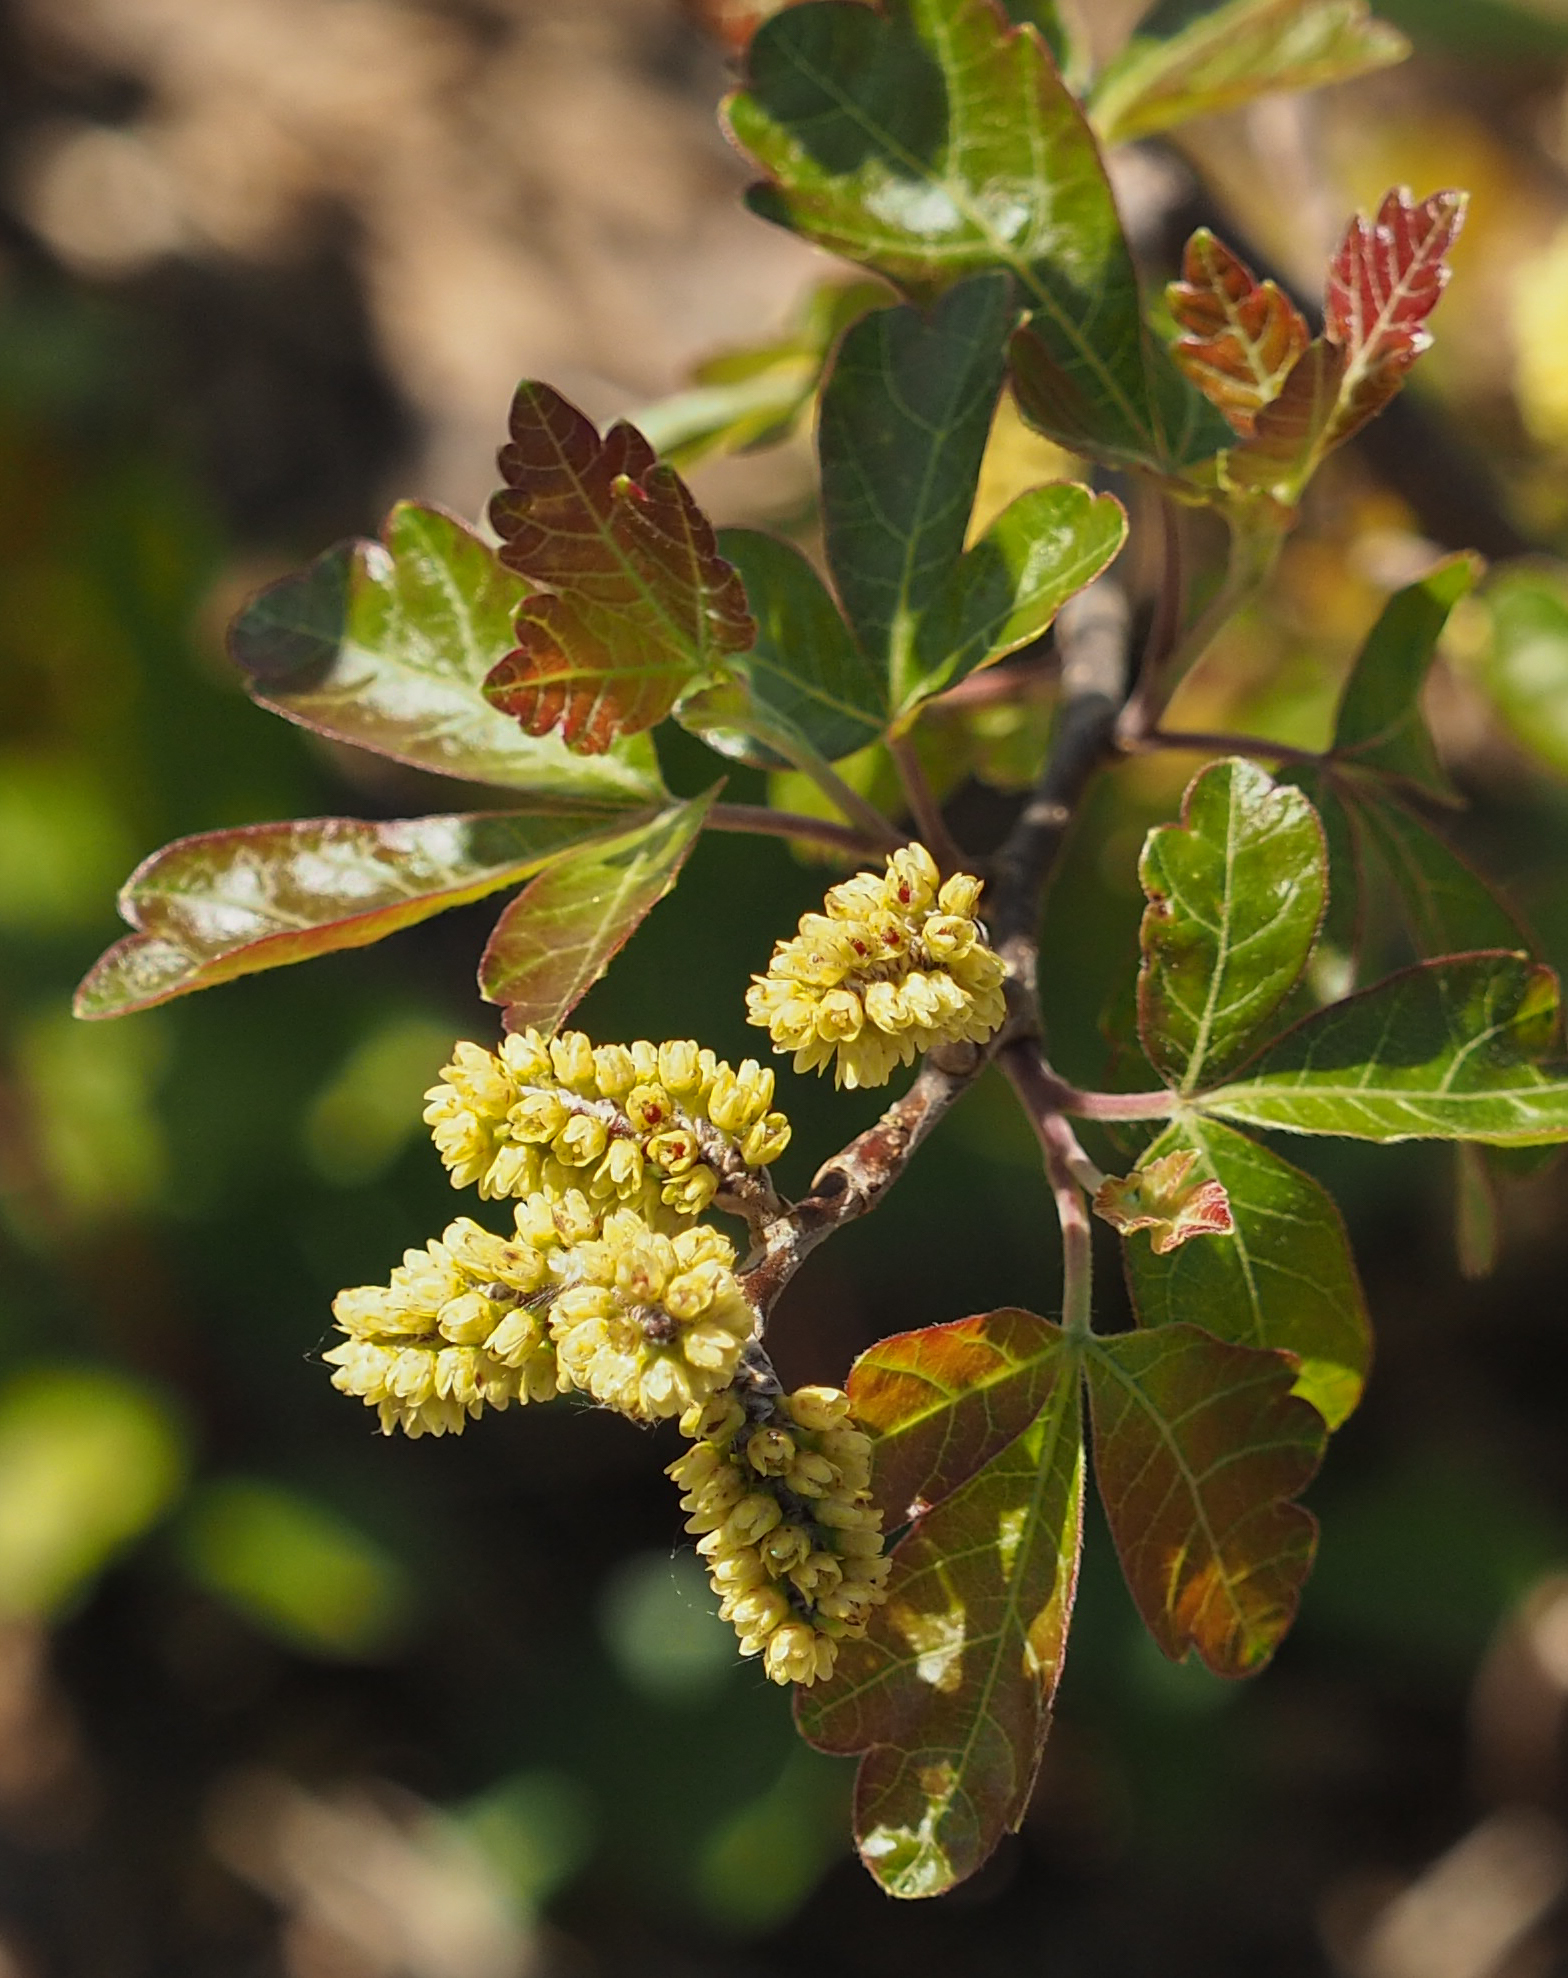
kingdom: Plantae
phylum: Tracheophyta
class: Magnoliopsida
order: Sapindales
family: Anacardiaceae
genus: Rhus
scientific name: Rhus aromatica
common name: Aromatic sumac
